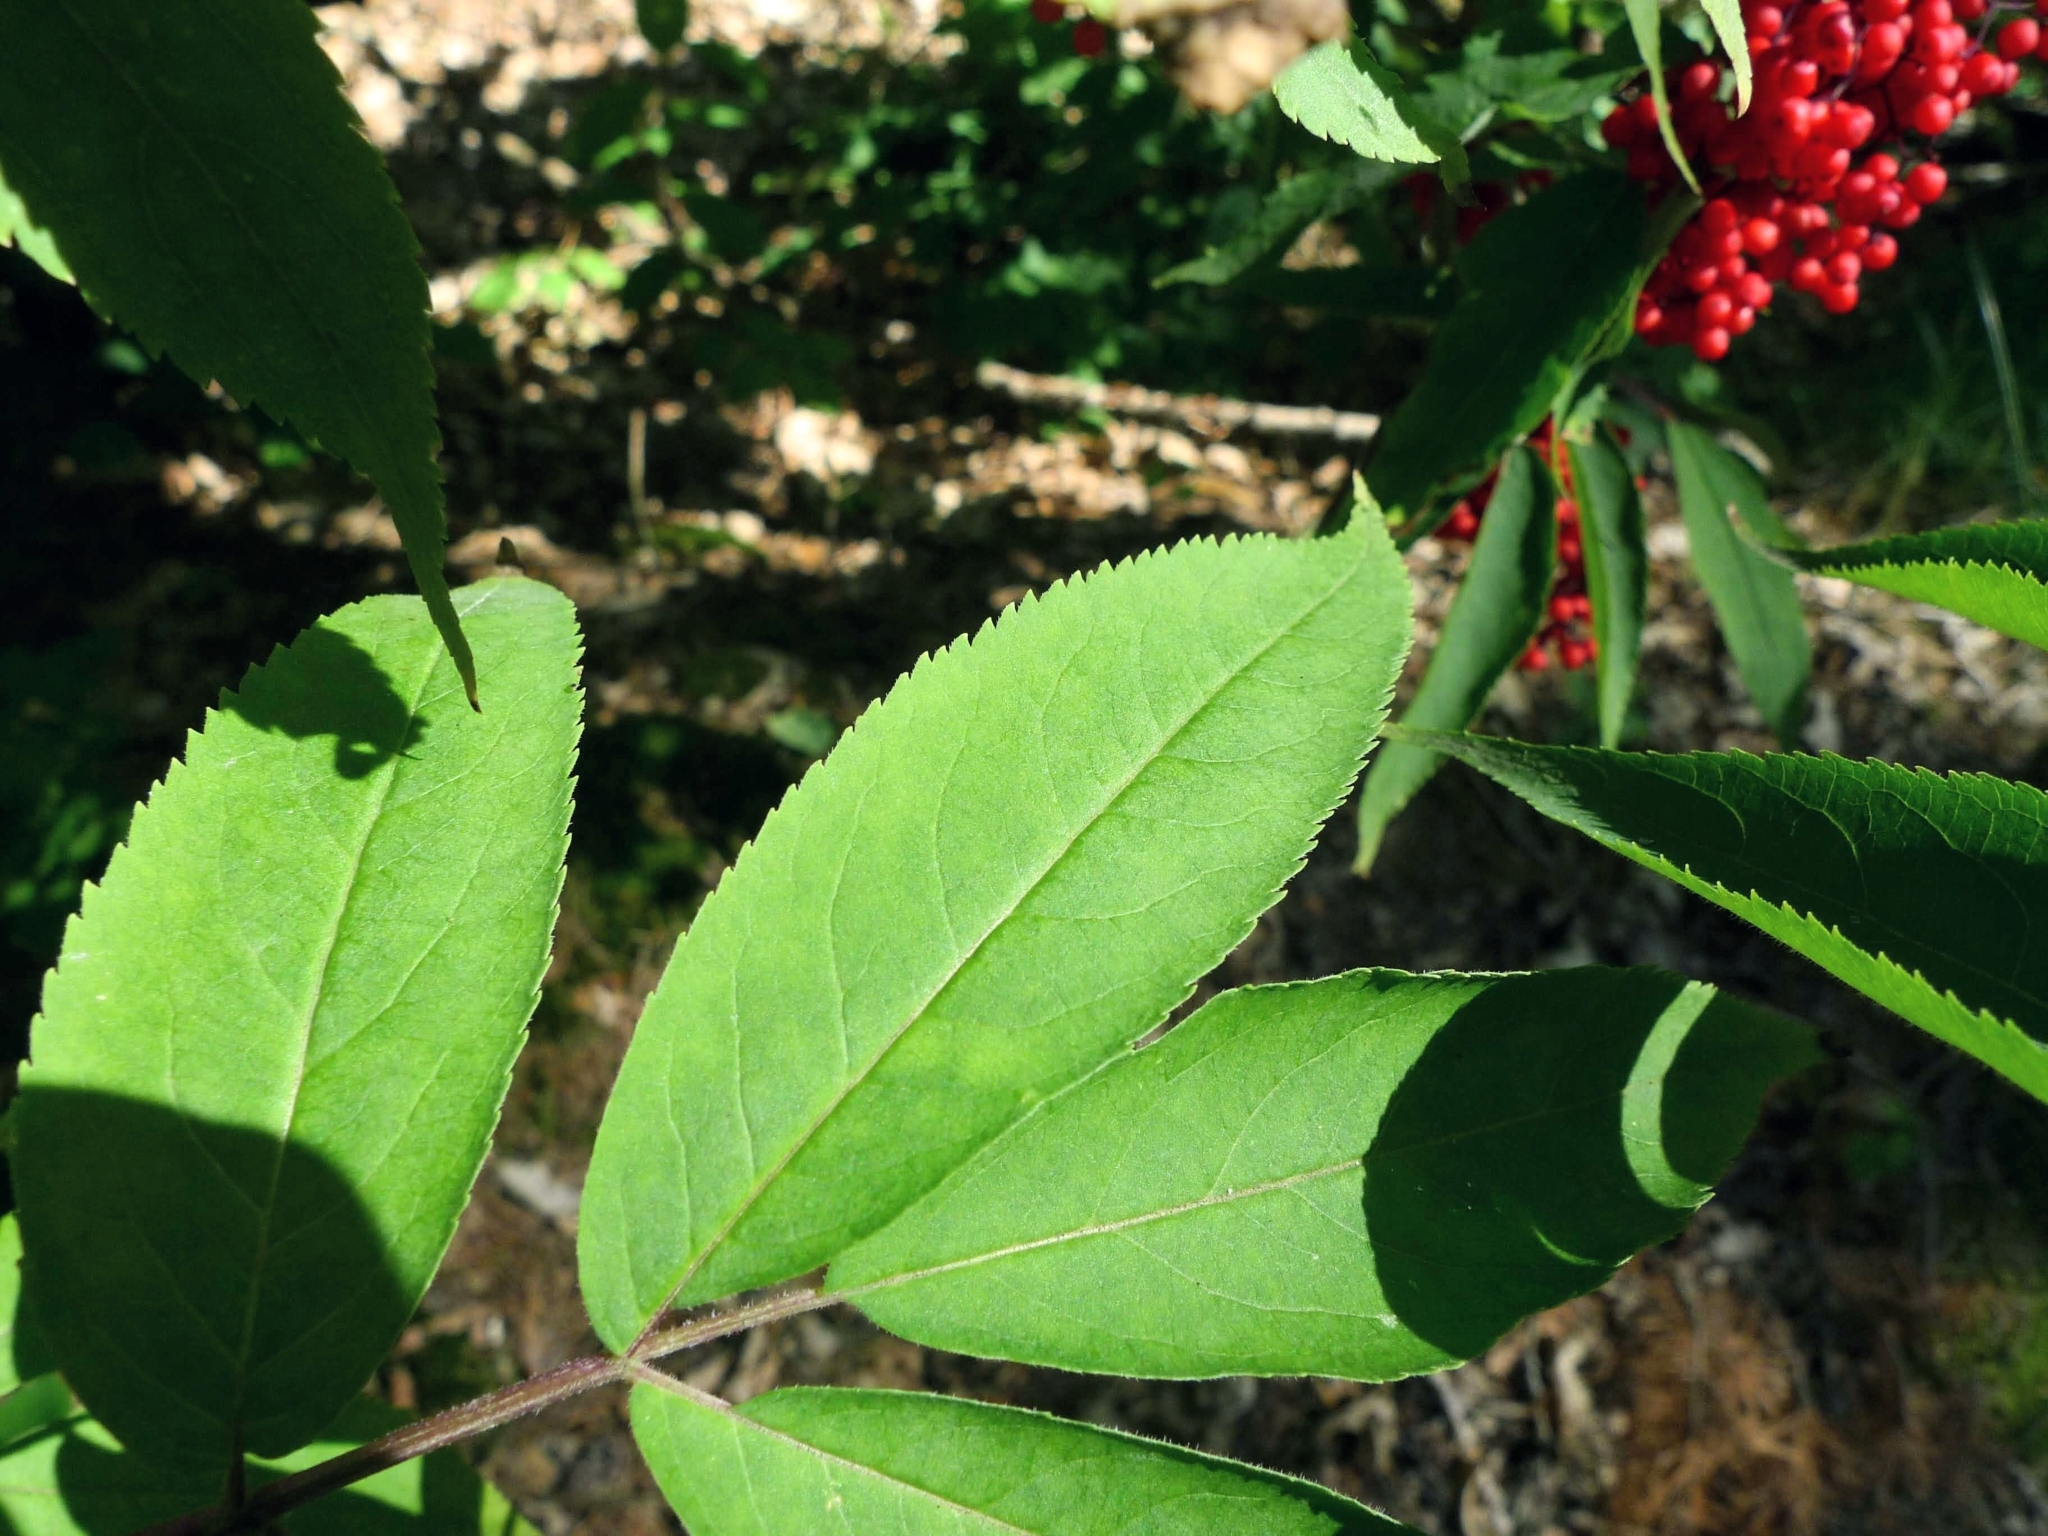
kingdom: Plantae
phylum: Tracheophyta
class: Magnoliopsida
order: Dipsacales
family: Viburnaceae
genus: Sambucus
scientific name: Sambucus racemosa
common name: Red-berried elder
